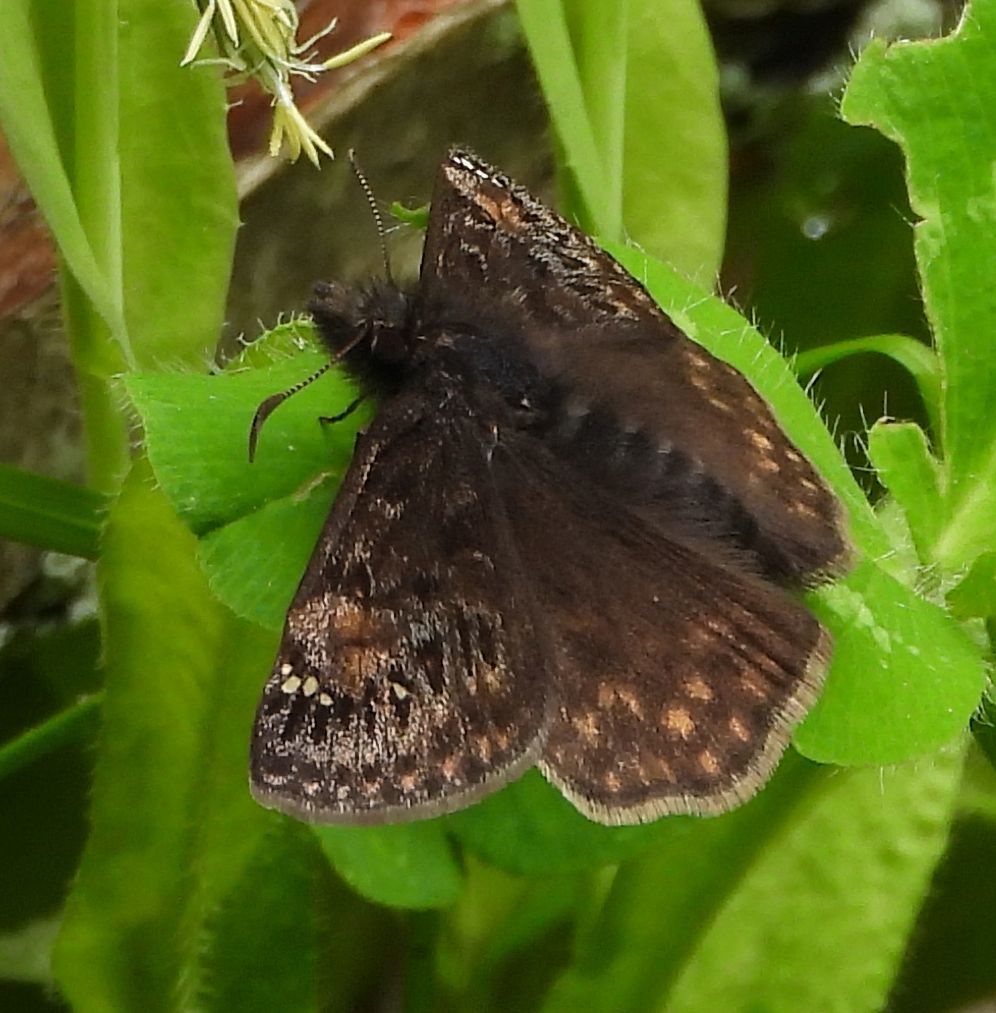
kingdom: Animalia
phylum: Arthropoda
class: Insecta
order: Lepidoptera
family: Hesperiidae
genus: Erynnis
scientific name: Erynnis juvenalis
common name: Juvenal's duskywing
